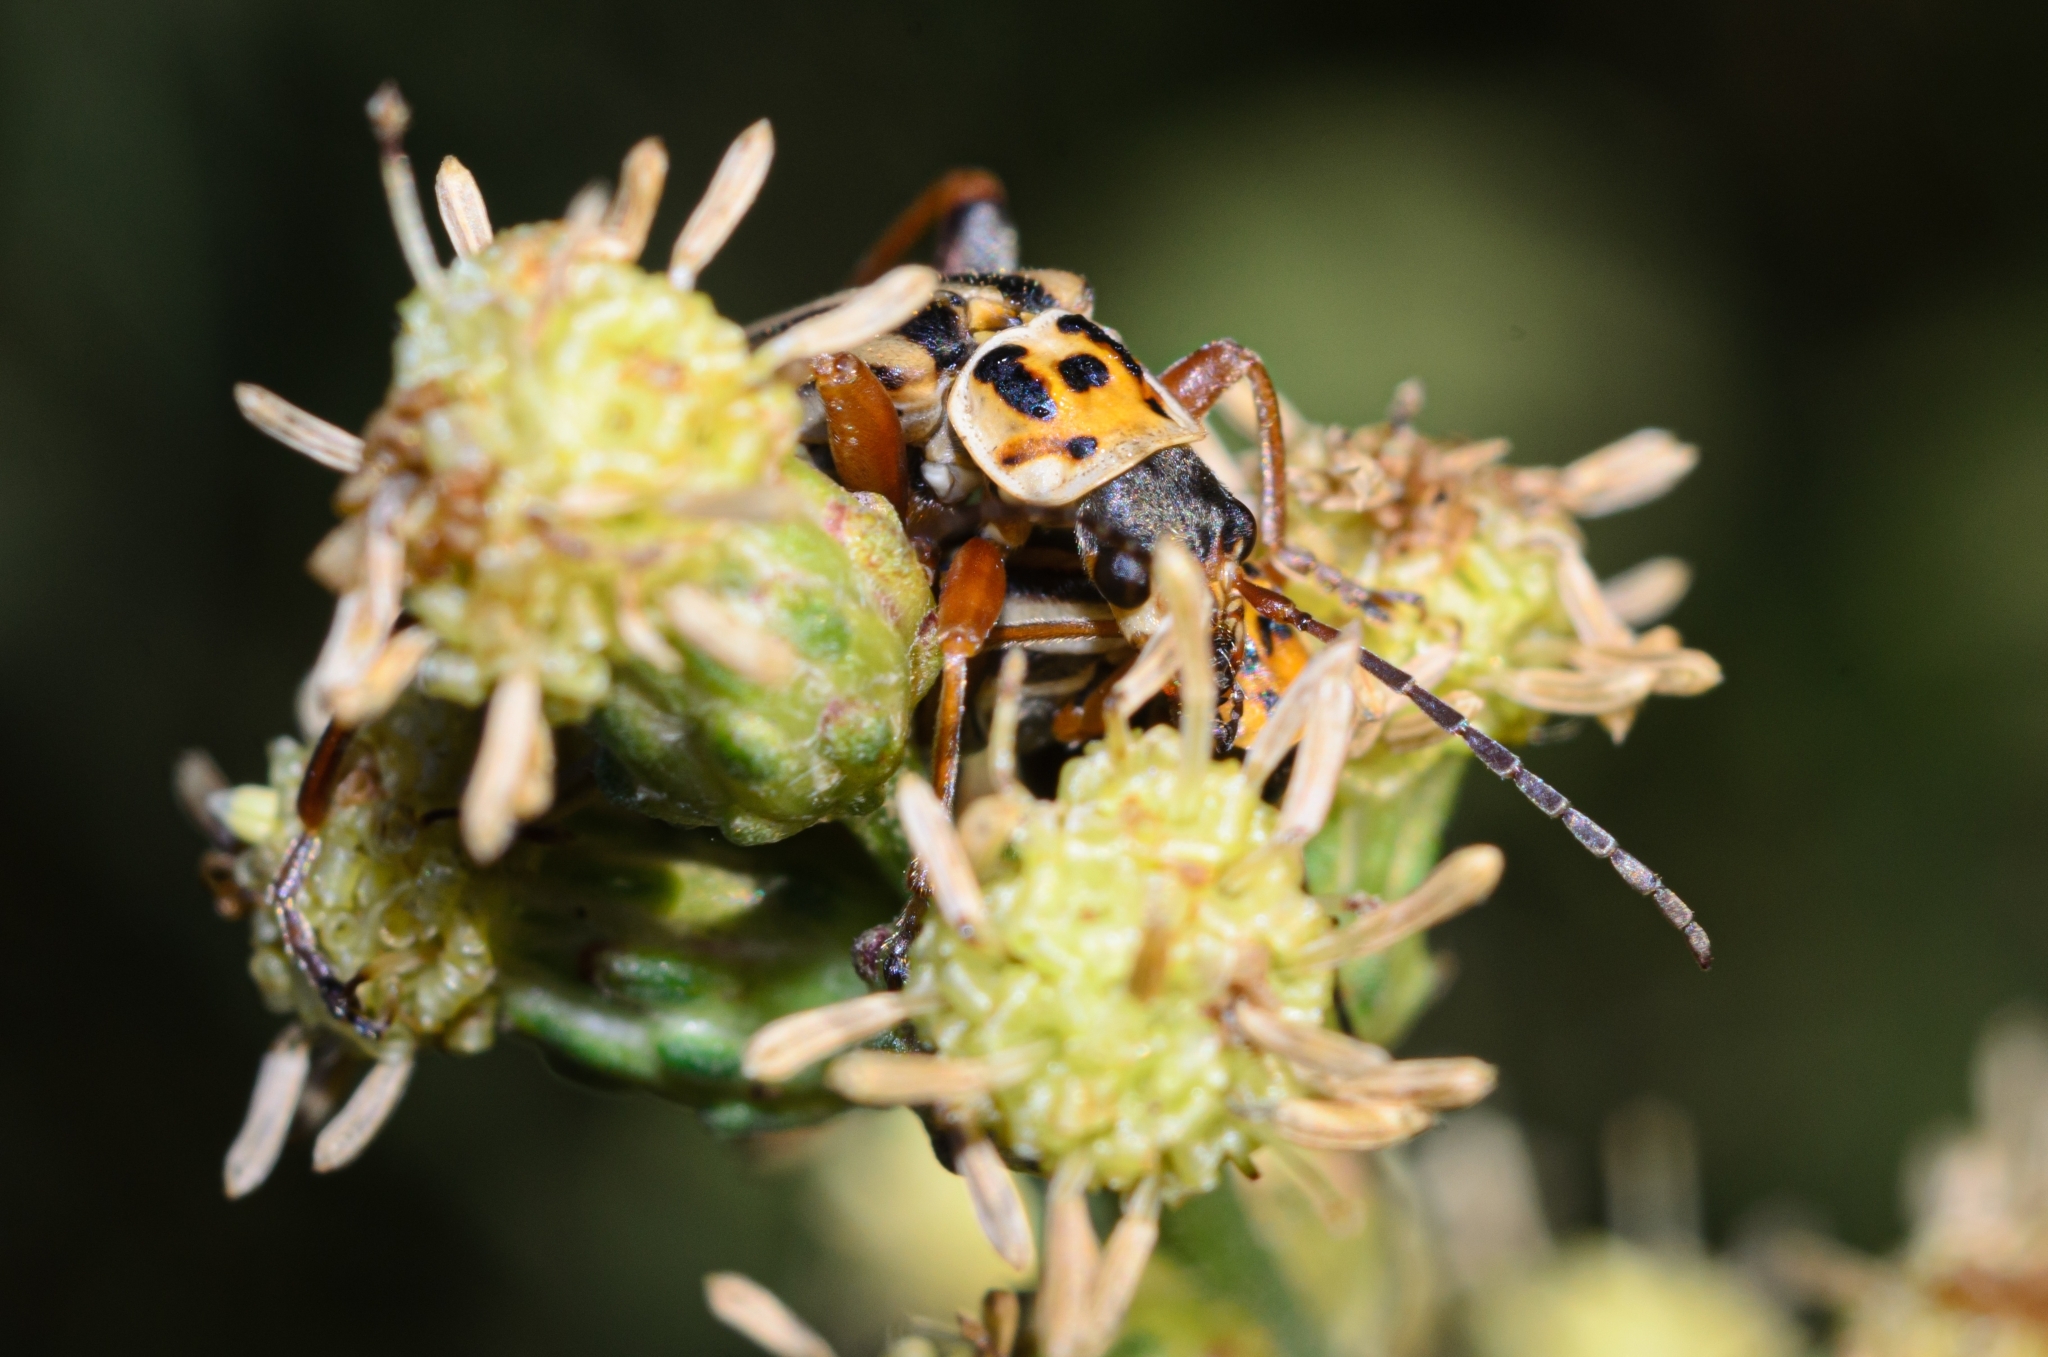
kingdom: Animalia
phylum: Arthropoda
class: Insecta
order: Coleoptera
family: Cantharidae
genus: Chauliognathus
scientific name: Chauliognathus
